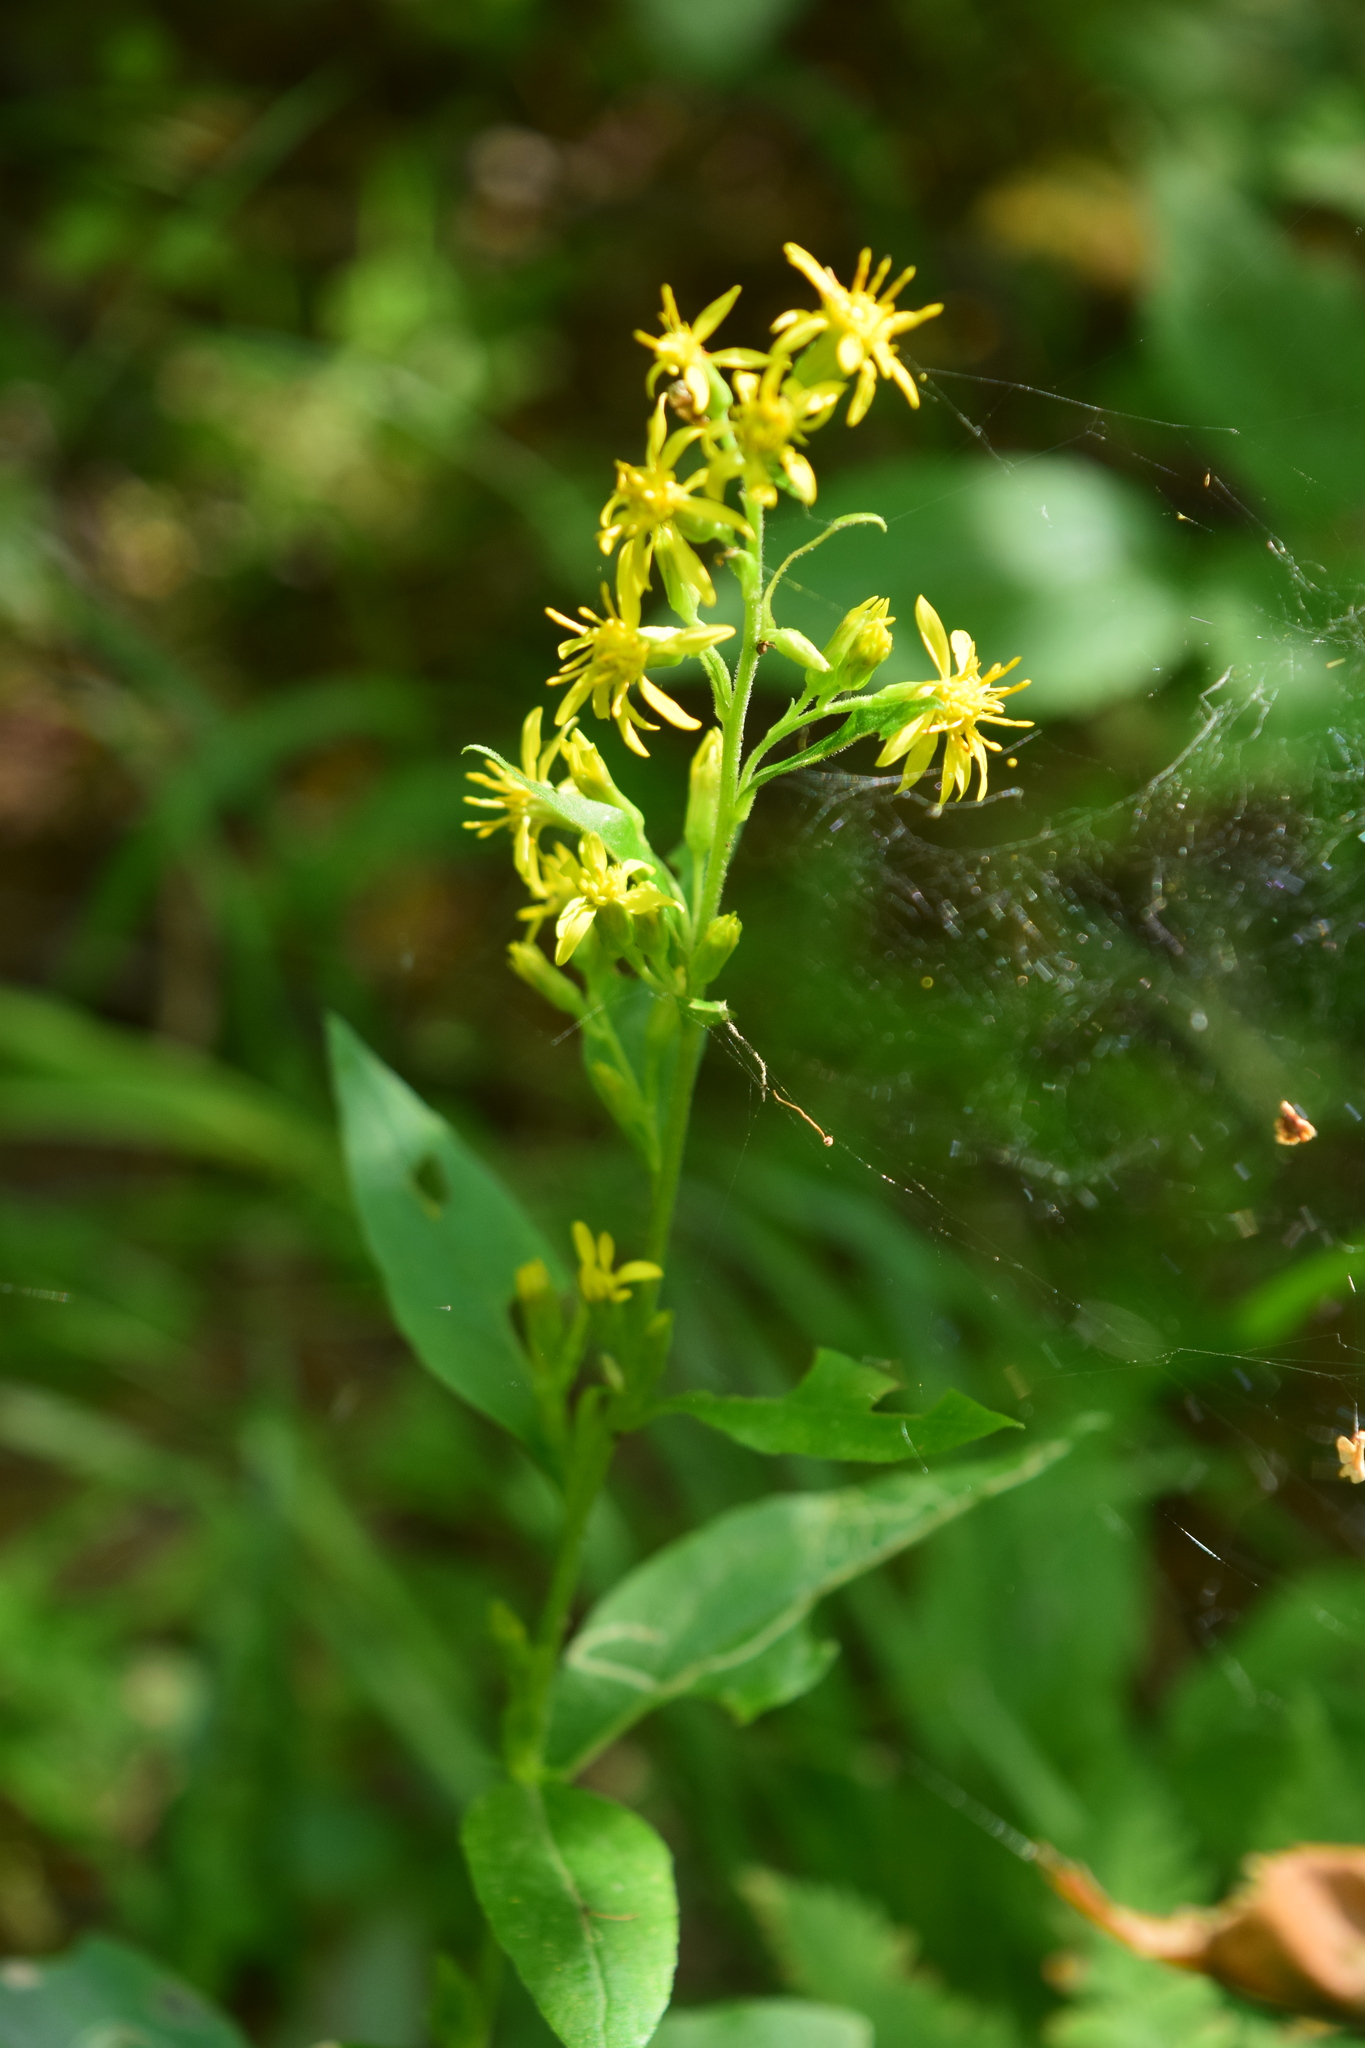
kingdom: Plantae
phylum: Tracheophyta
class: Magnoliopsida
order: Asterales
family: Asteraceae
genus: Solidago
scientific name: Solidago virgaurea
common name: Goldenrod
